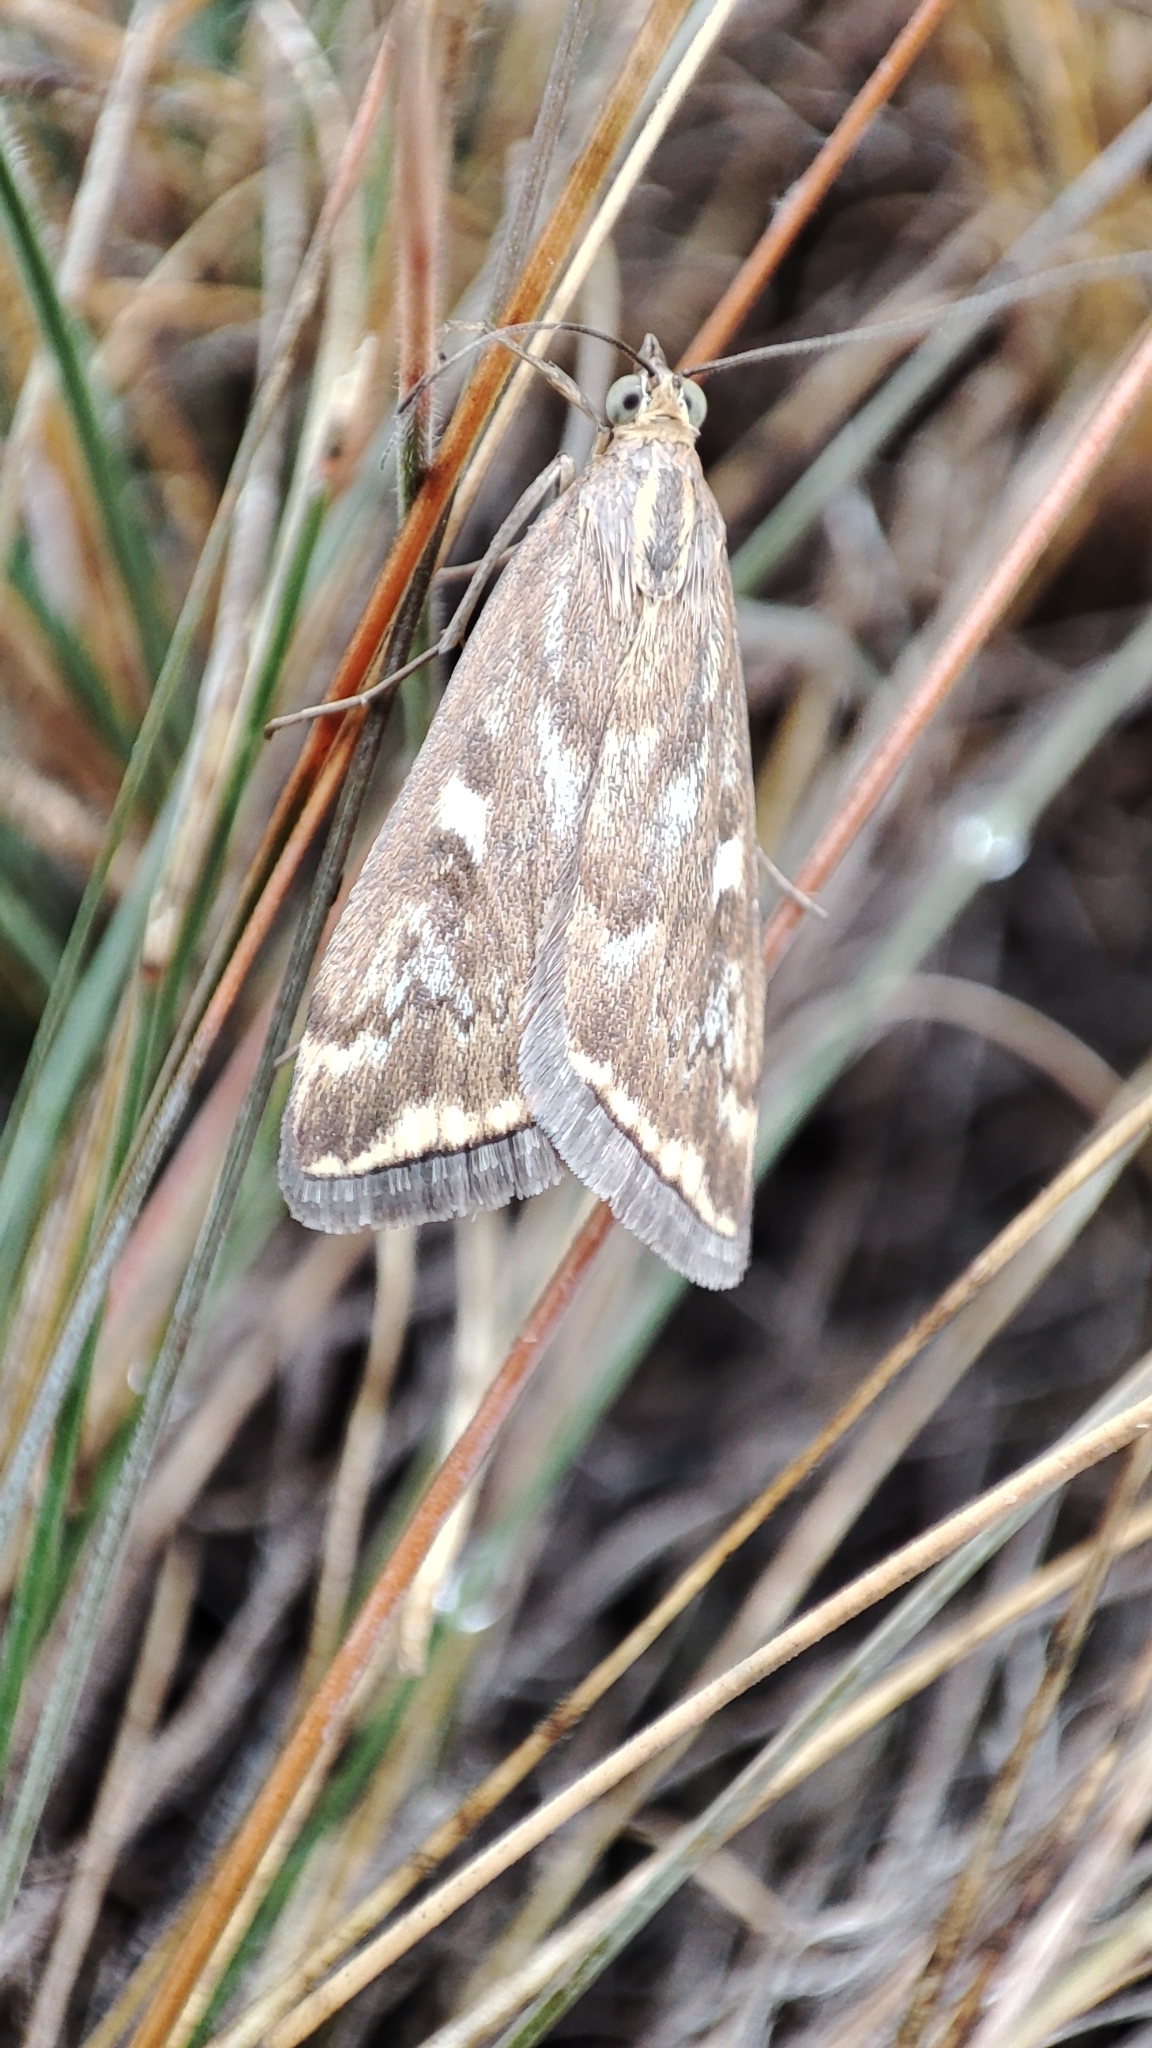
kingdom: Animalia
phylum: Arthropoda
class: Insecta
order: Lepidoptera
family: Crambidae
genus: Loxostege
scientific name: Loxostege sticticalis
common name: Crambid moth
